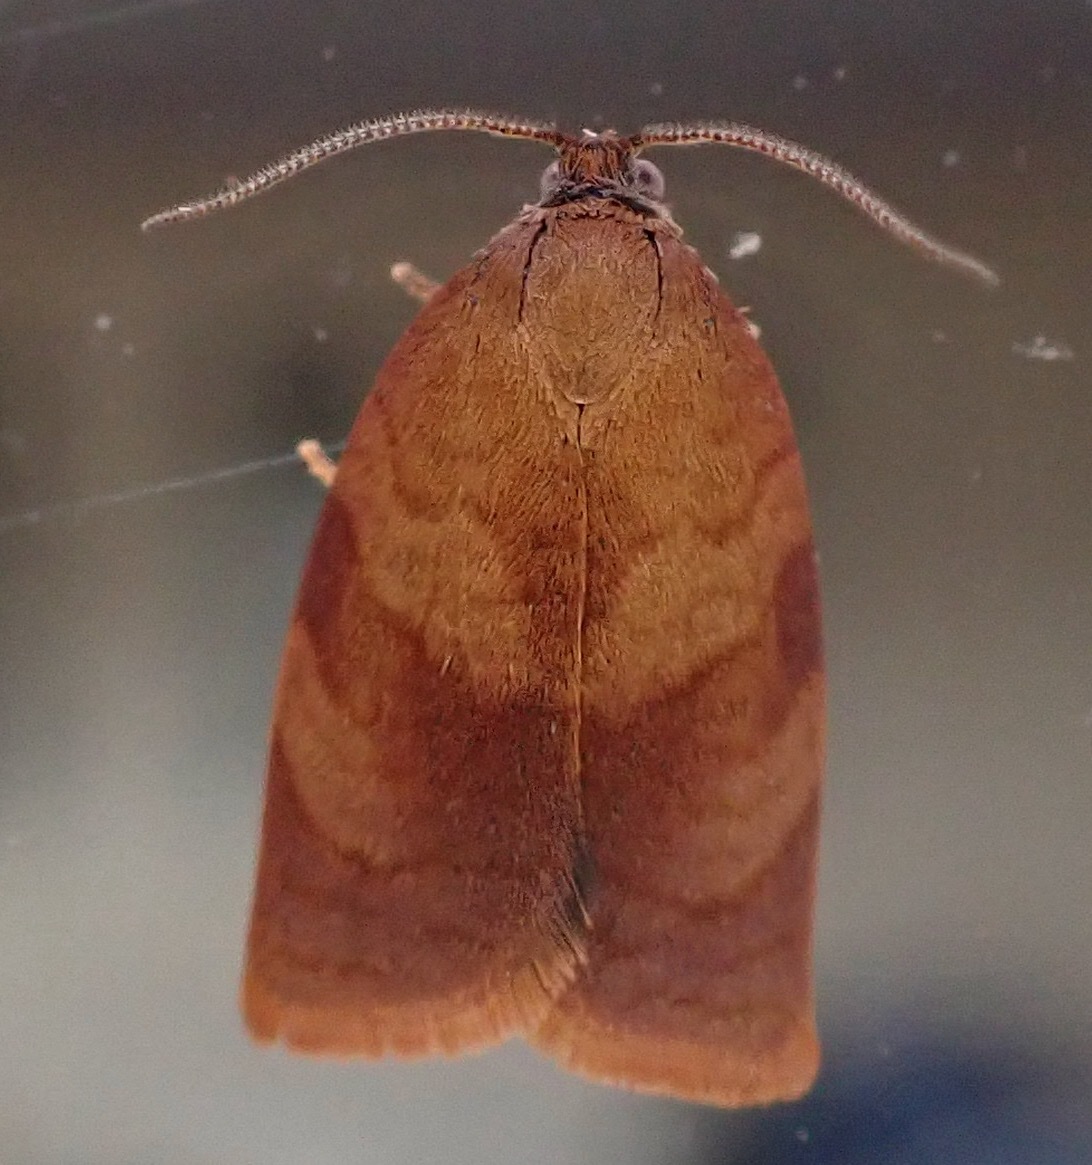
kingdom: Animalia
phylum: Arthropoda
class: Insecta
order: Lepidoptera
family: Tortricidae
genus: Cacoecimorpha
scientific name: Cacoecimorpha pronubana
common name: Carnation tortrix
